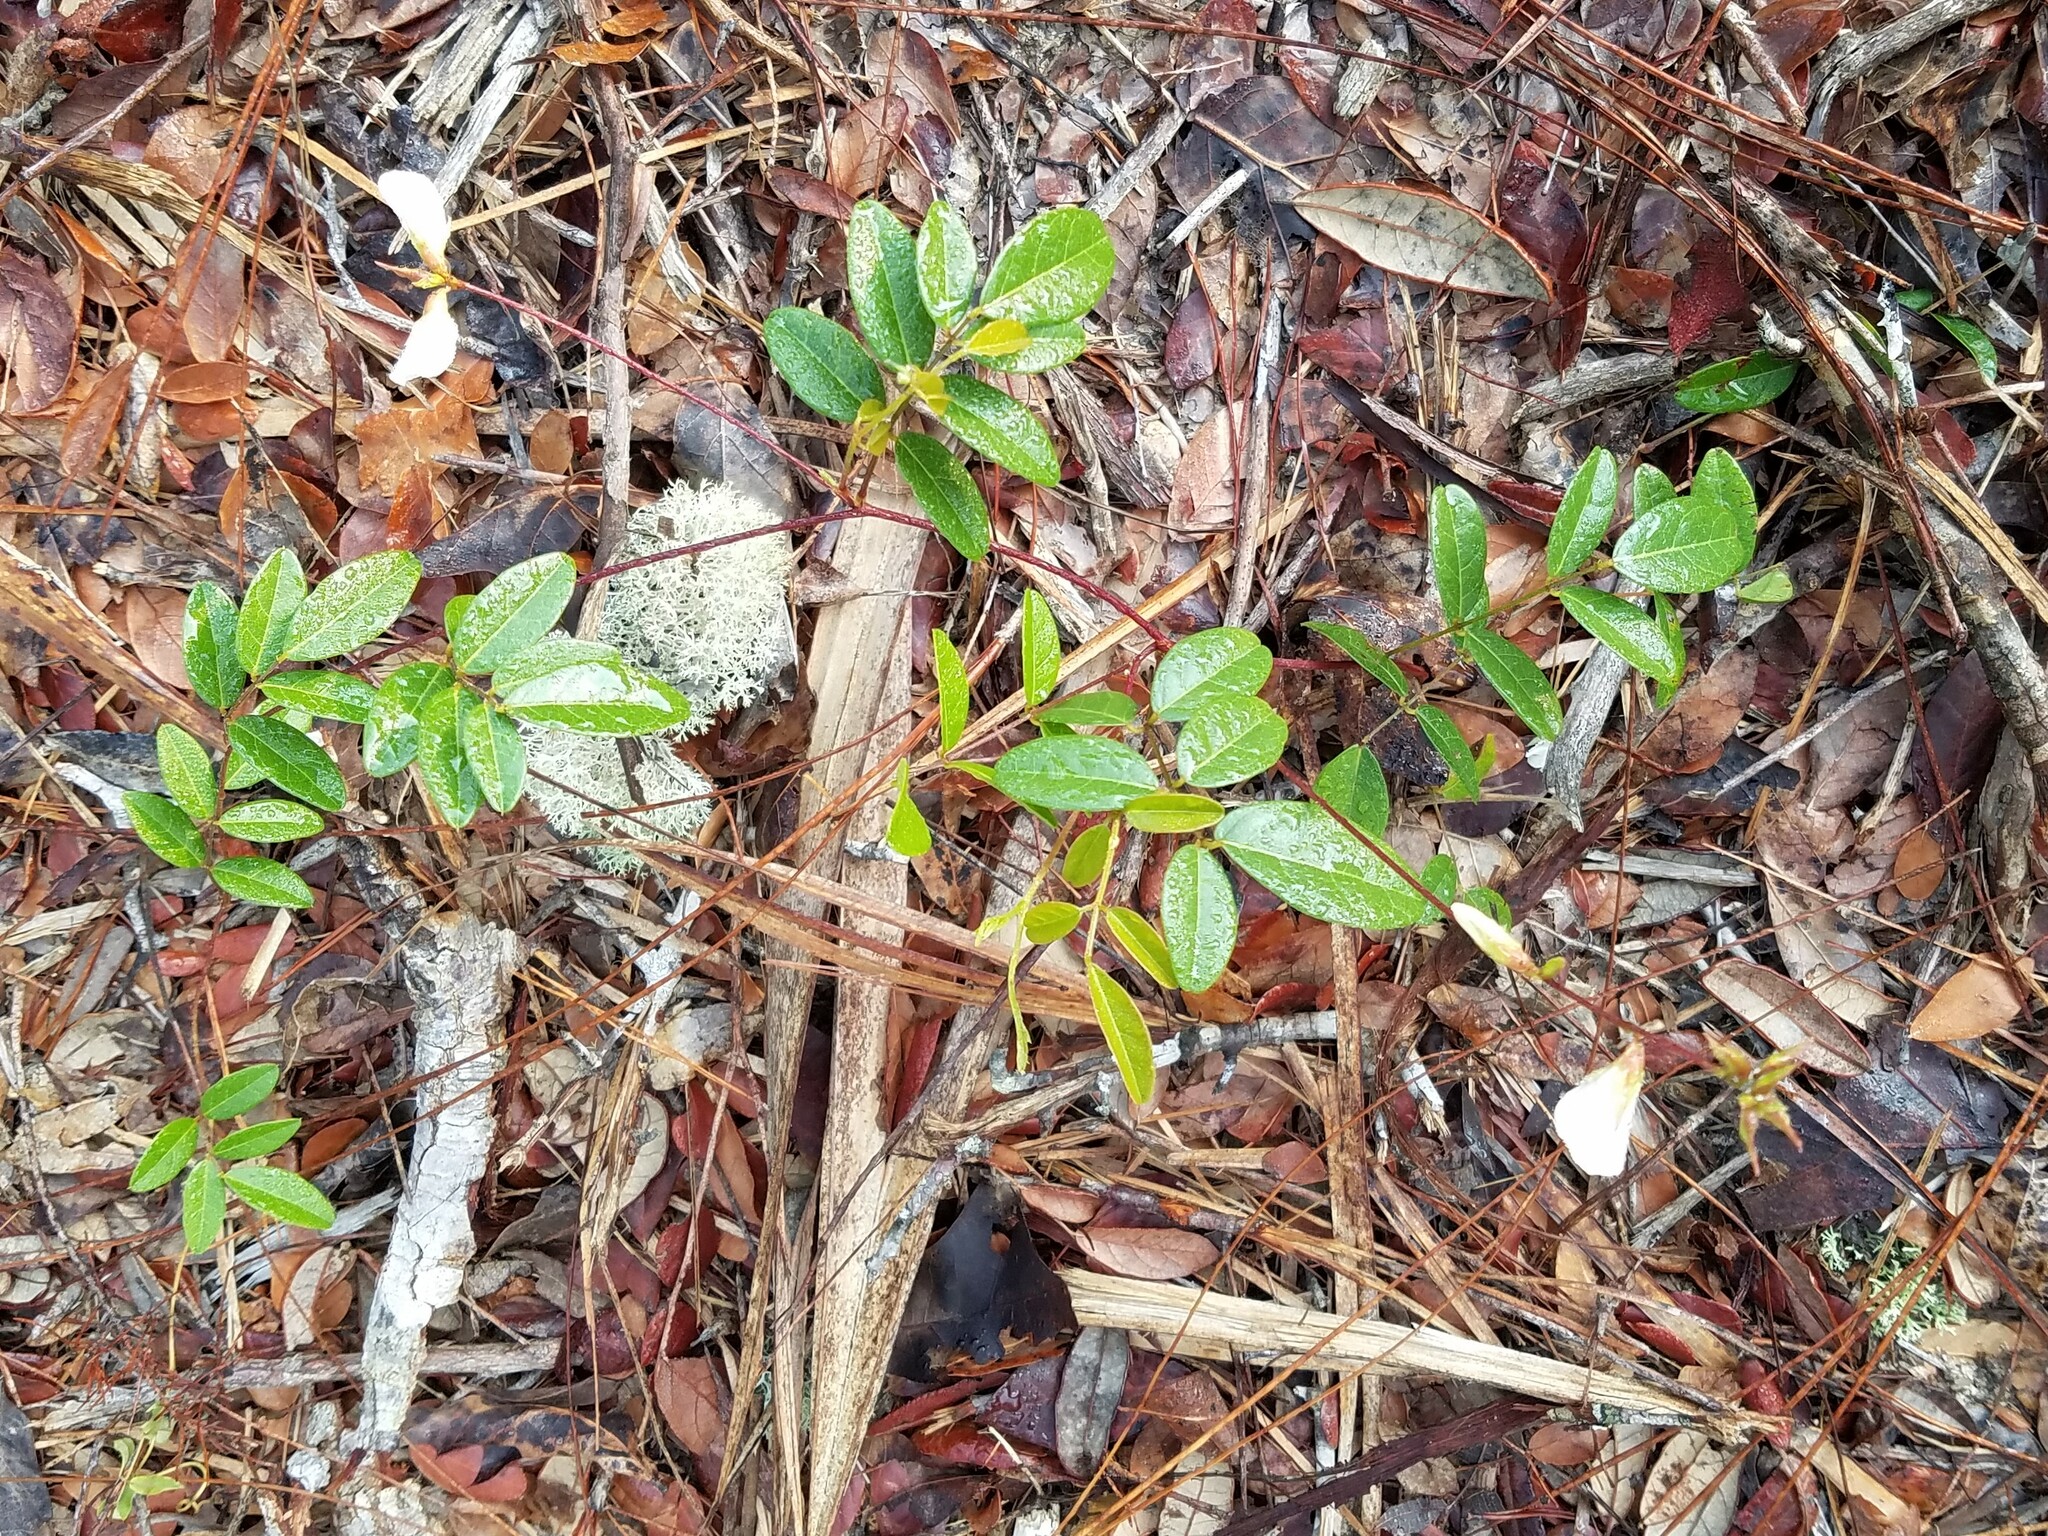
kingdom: Plantae
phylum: Tracheophyta
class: Magnoliopsida
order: Fabales
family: Fabaceae
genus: Galactia
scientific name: Galactia elliottii
